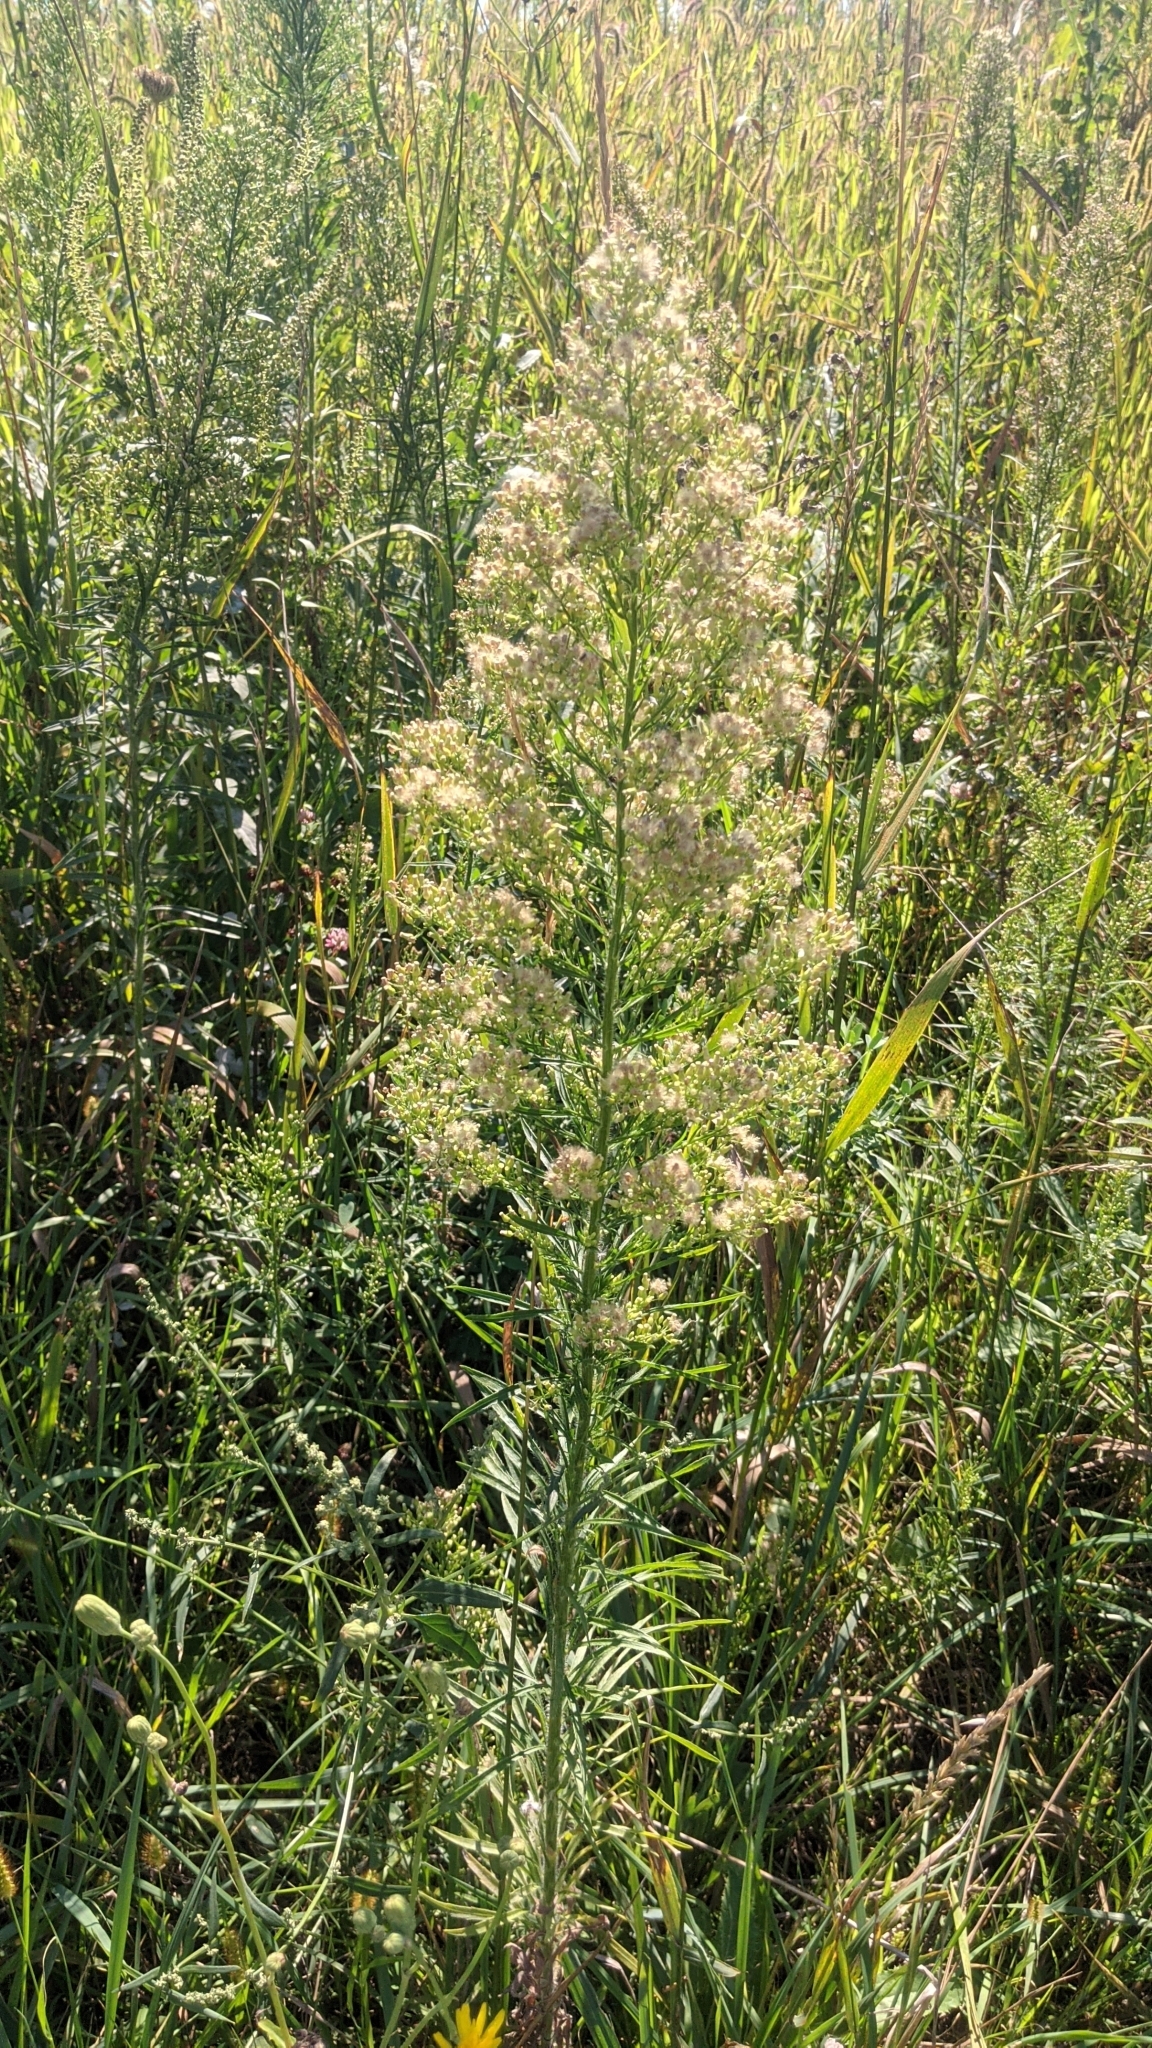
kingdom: Plantae
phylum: Tracheophyta
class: Magnoliopsida
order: Asterales
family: Asteraceae
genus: Erigeron
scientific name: Erigeron canadensis
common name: Canadian fleabane
